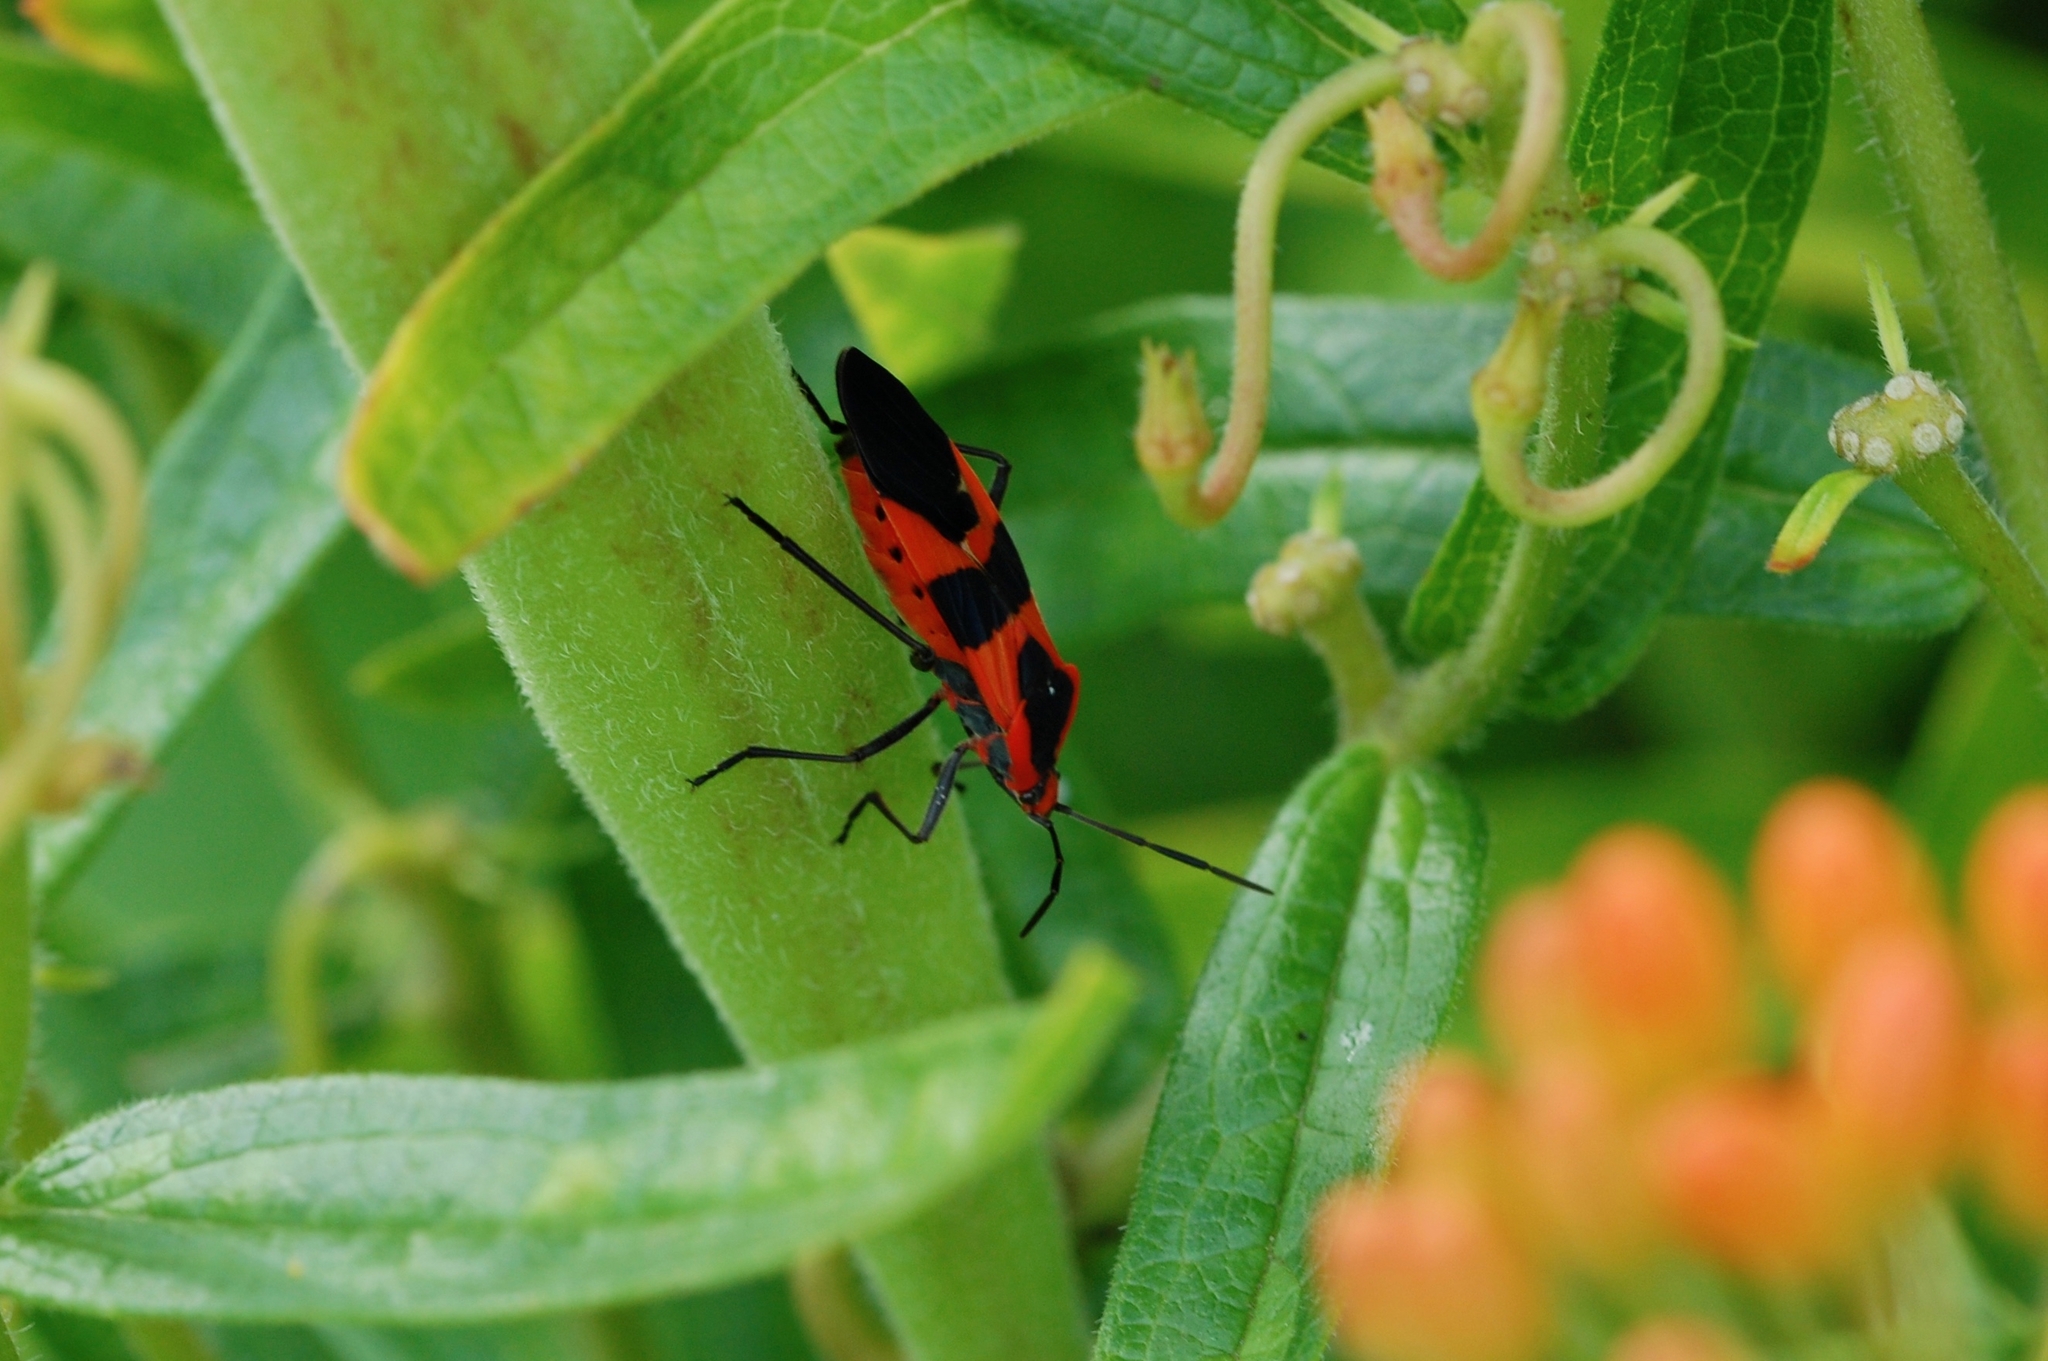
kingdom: Animalia
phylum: Arthropoda
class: Insecta
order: Hemiptera
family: Lygaeidae
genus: Oncopeltus
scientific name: Oncopeltus fasciatus
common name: Large milkweed bug
